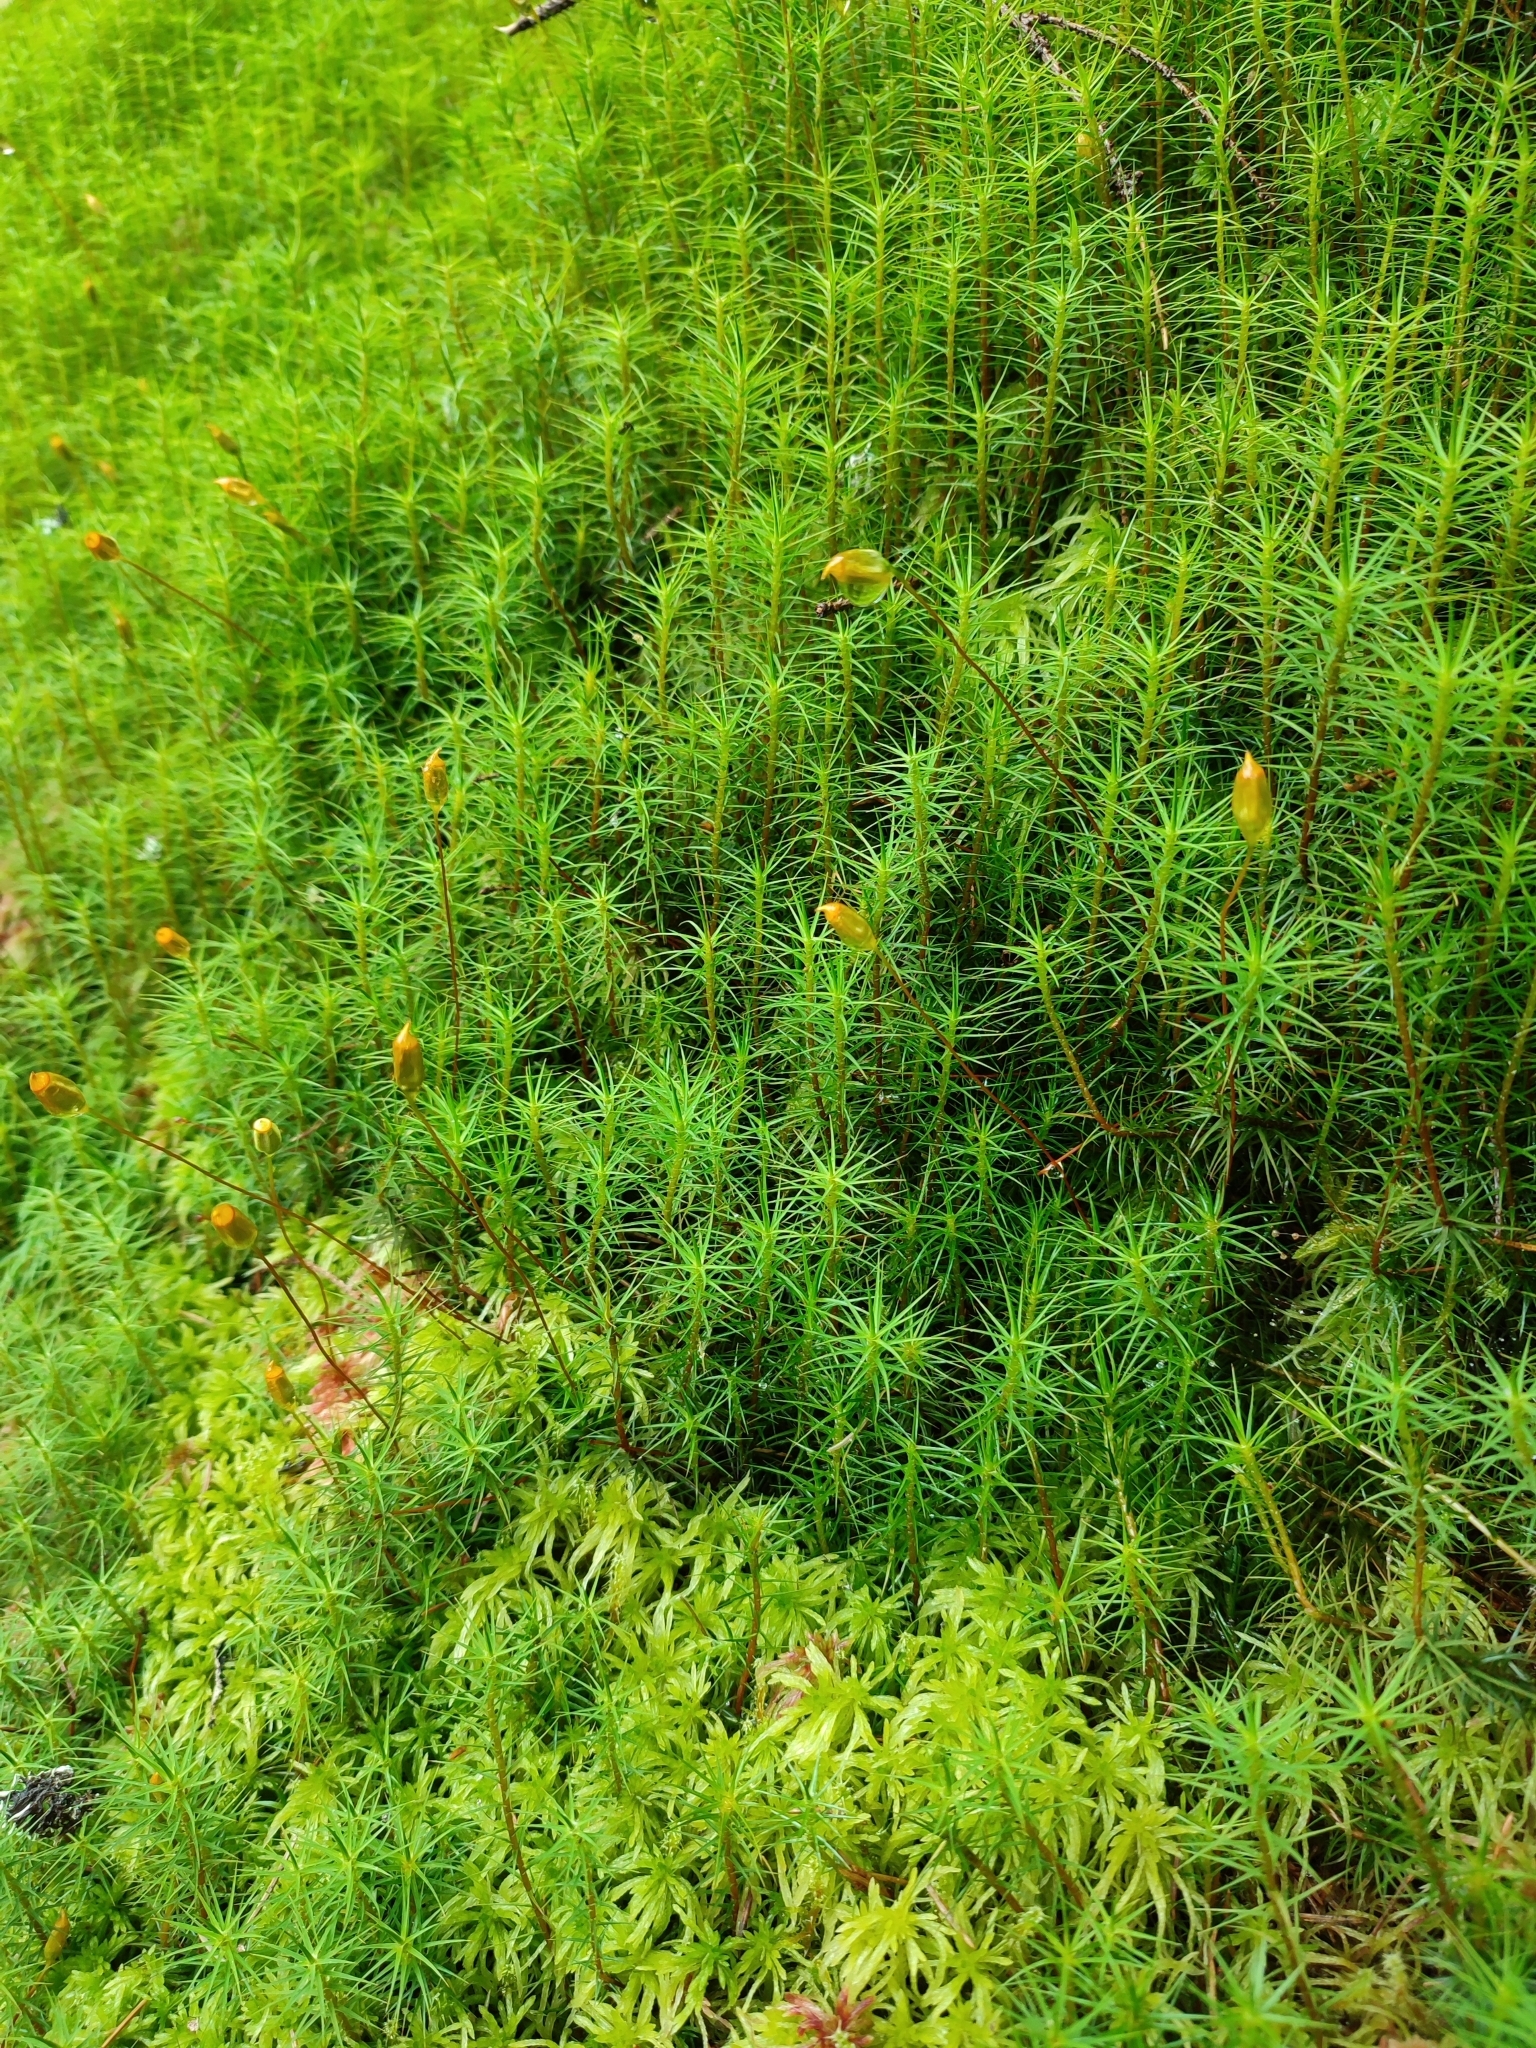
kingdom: Plantae
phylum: Bryophyta
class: Polytrichopsida
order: Polytrichales
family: Polytrichaceae
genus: Polytrichum
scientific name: Polytrichum commune
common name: Common haircap
